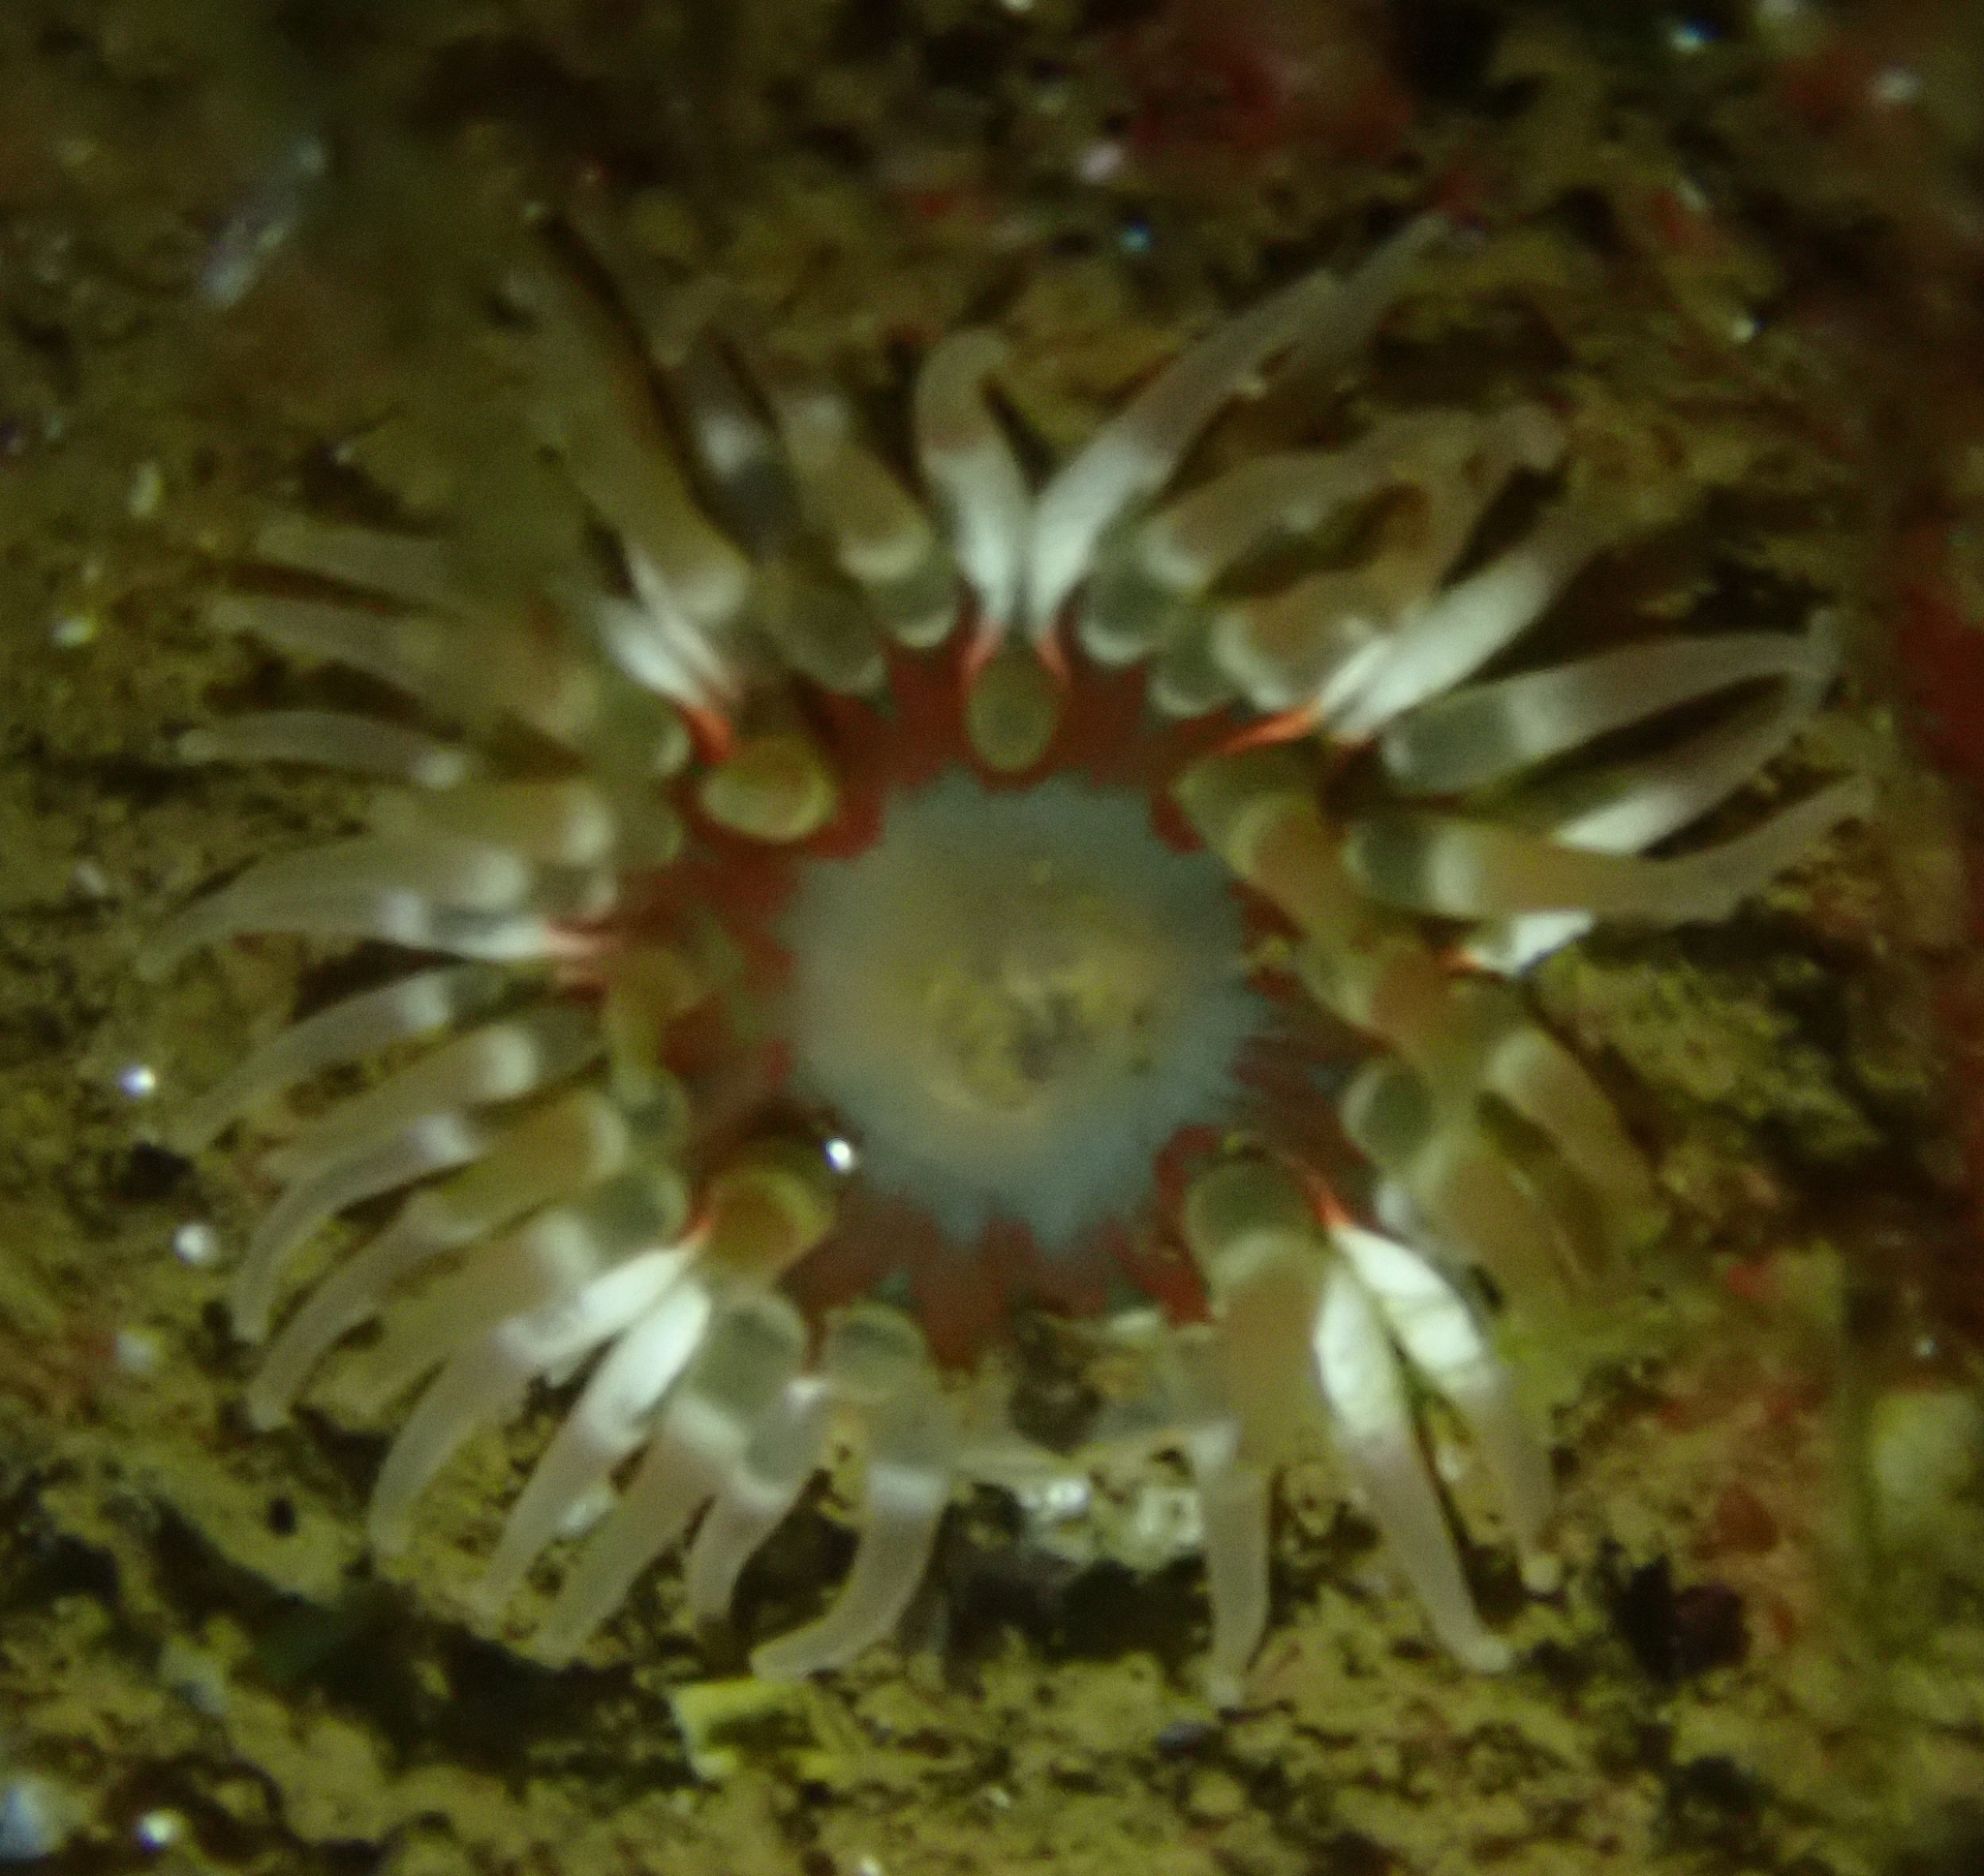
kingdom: Animalia
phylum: Cnidaria
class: Anthozoa
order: Actiniaria
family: Actiniidae
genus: Urticina
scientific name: Urticina felina
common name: Dahlia anemone
